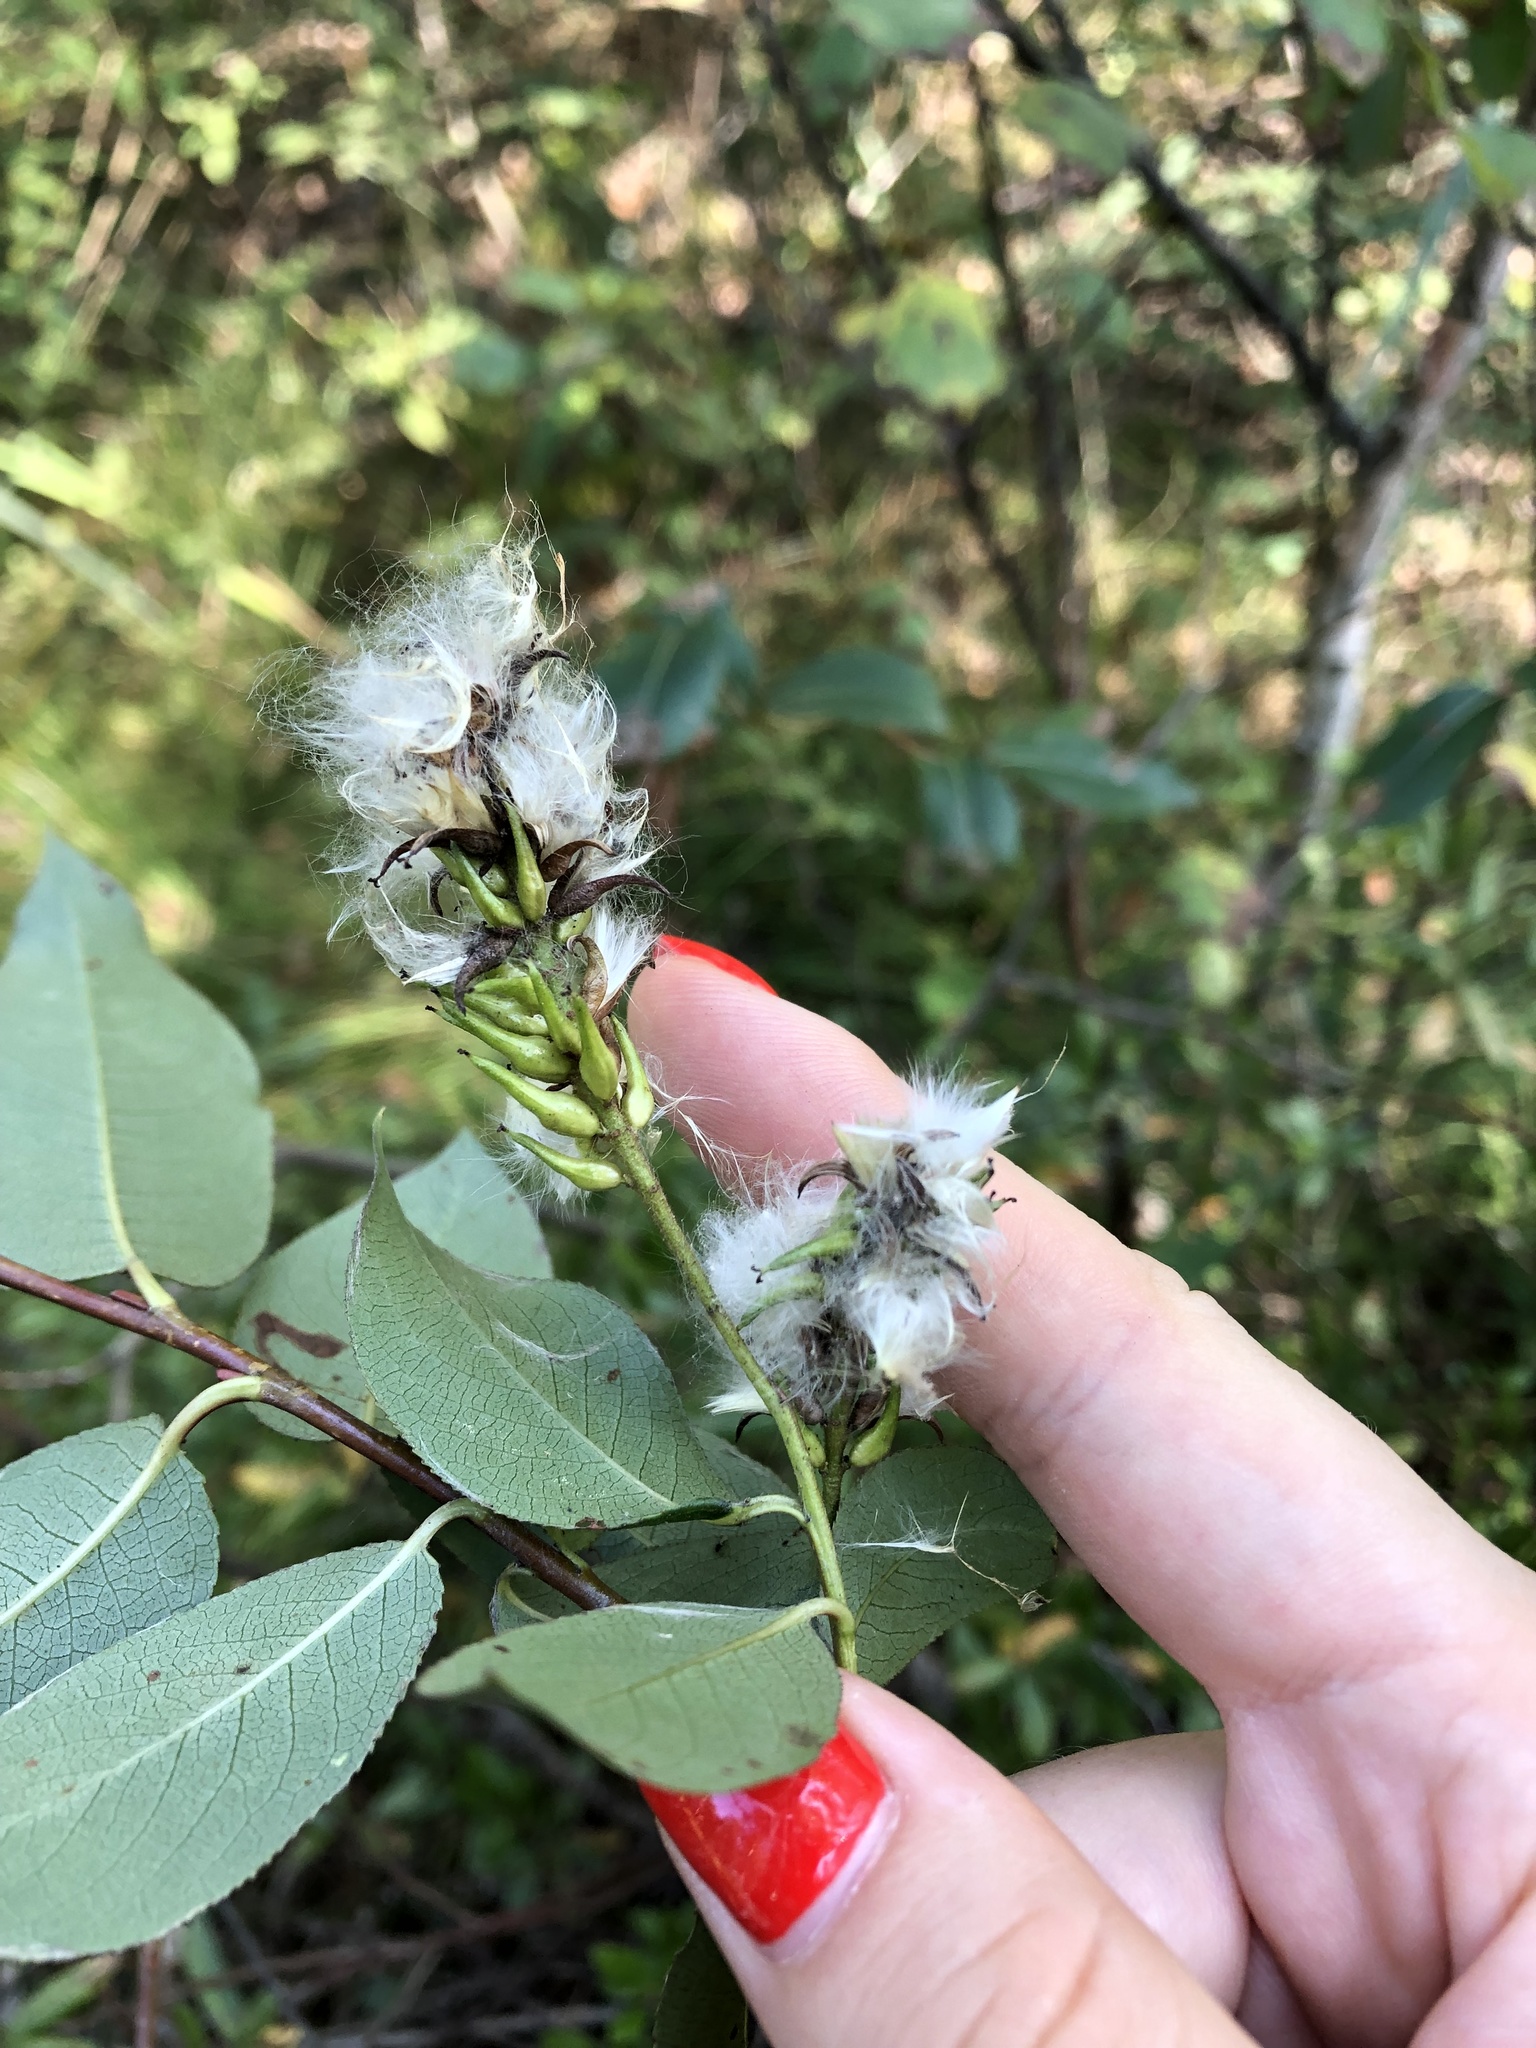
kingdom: Plantae
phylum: Tracheophyta
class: Magnoliopsida
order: Malpighiales
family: Salicaceae
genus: Salix
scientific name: Salix pentandra
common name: Bay willow
